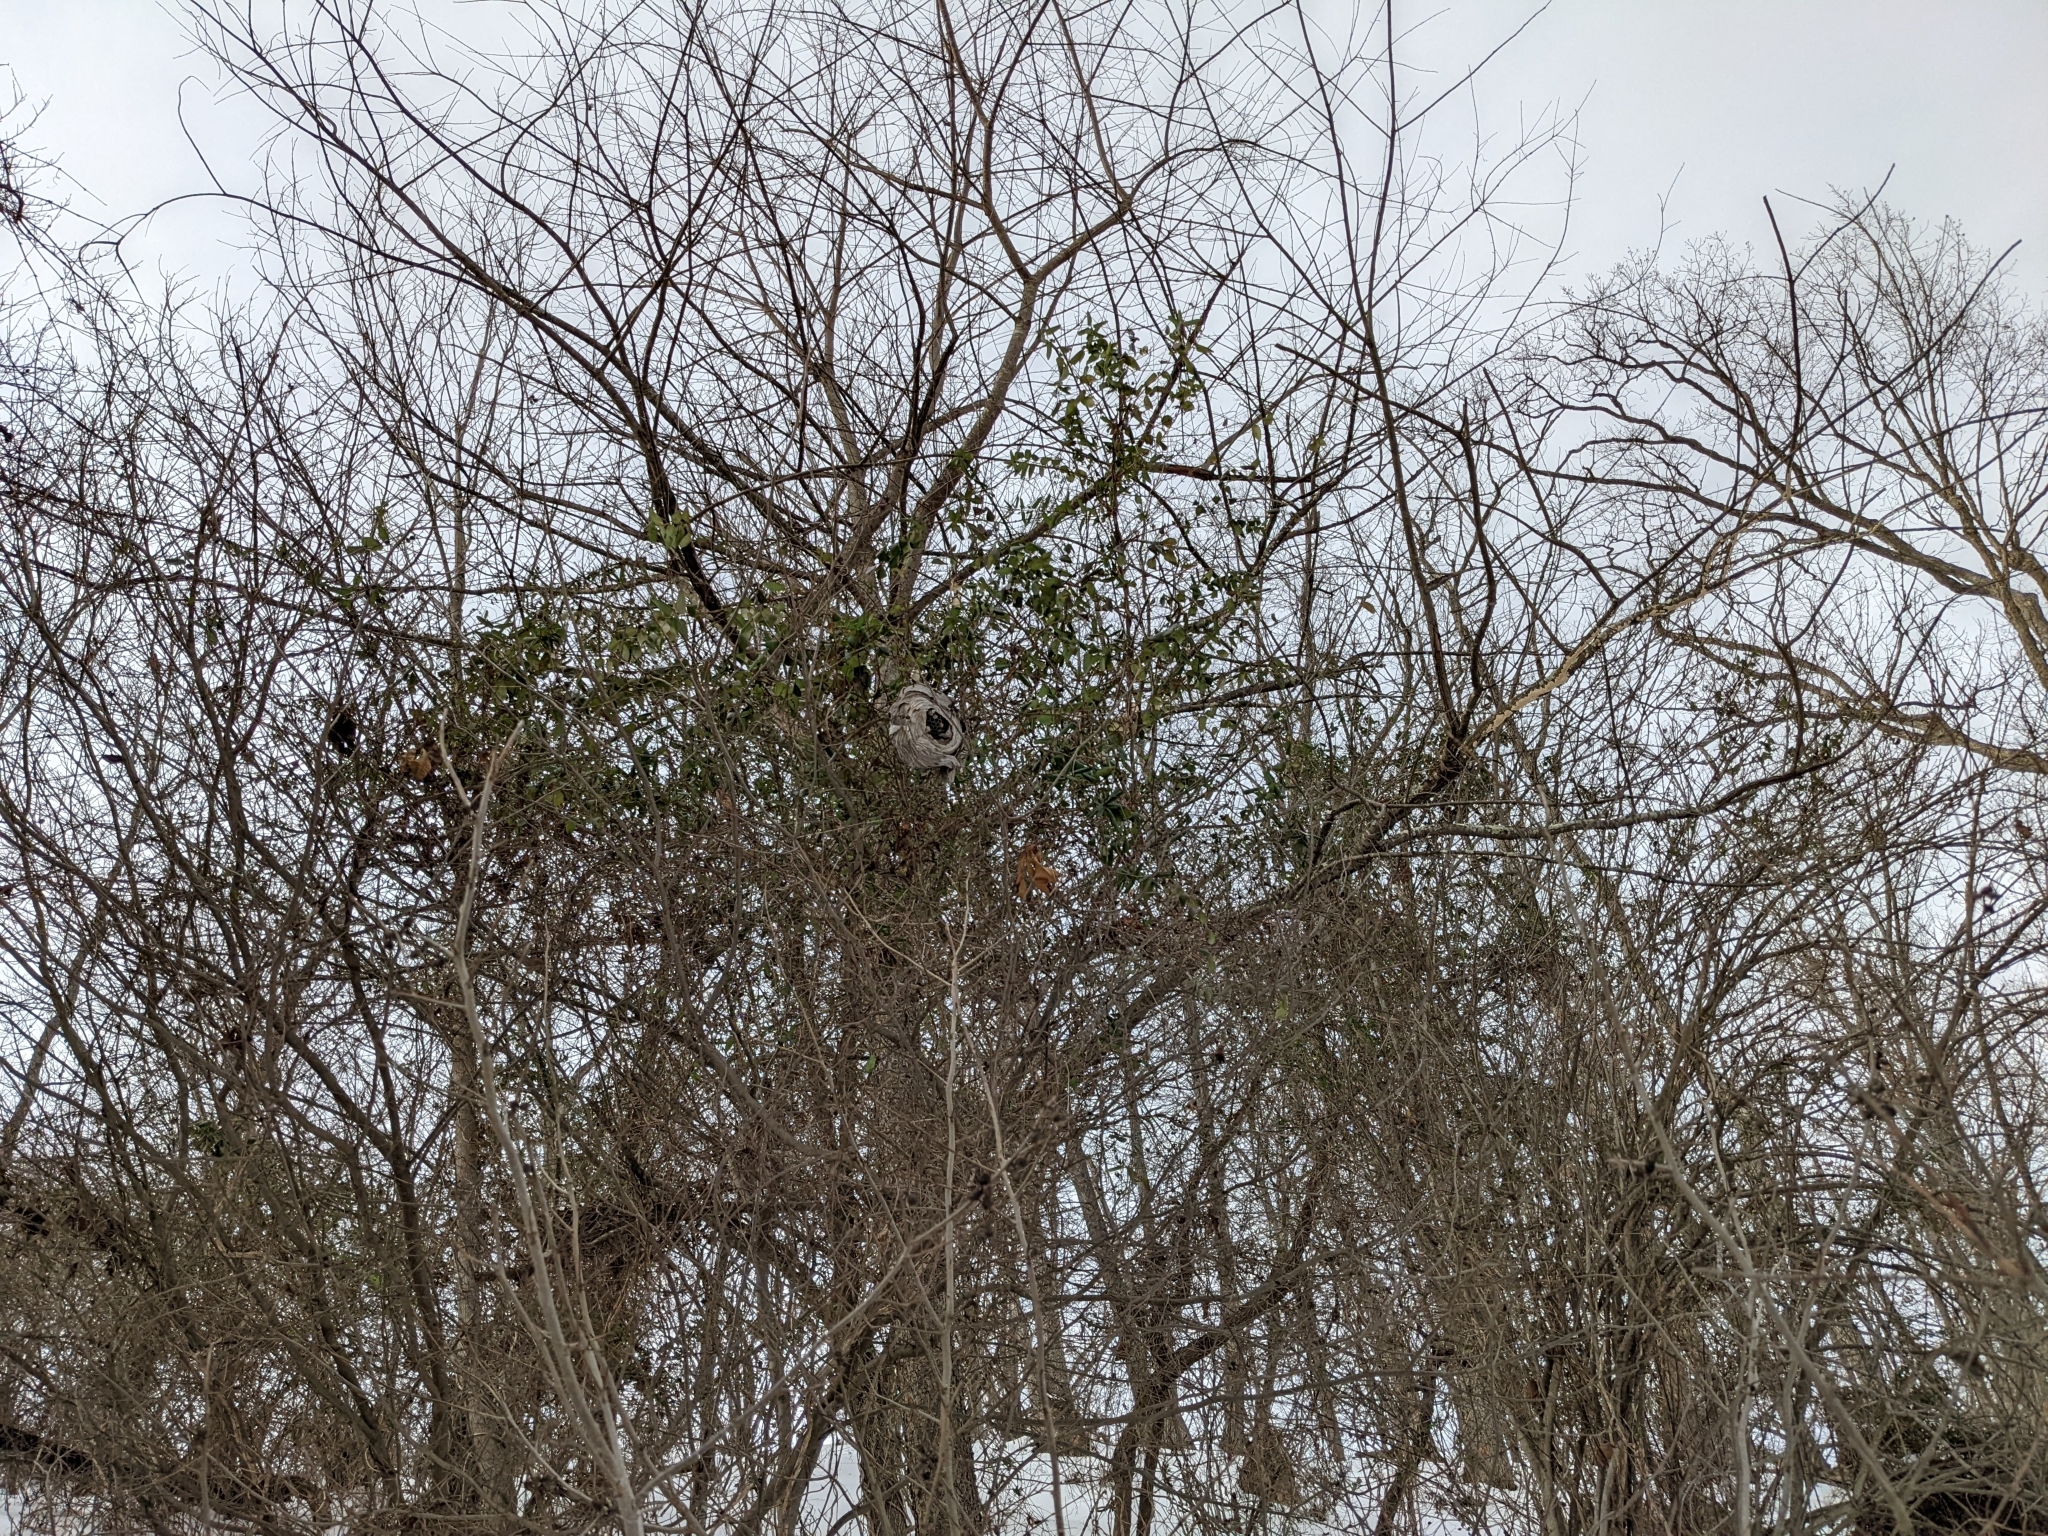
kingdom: Animalia
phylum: Arthropoda
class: Insecta
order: Hymenoptera
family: Vespidae
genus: Dolichovespula
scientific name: Dolichovespula
